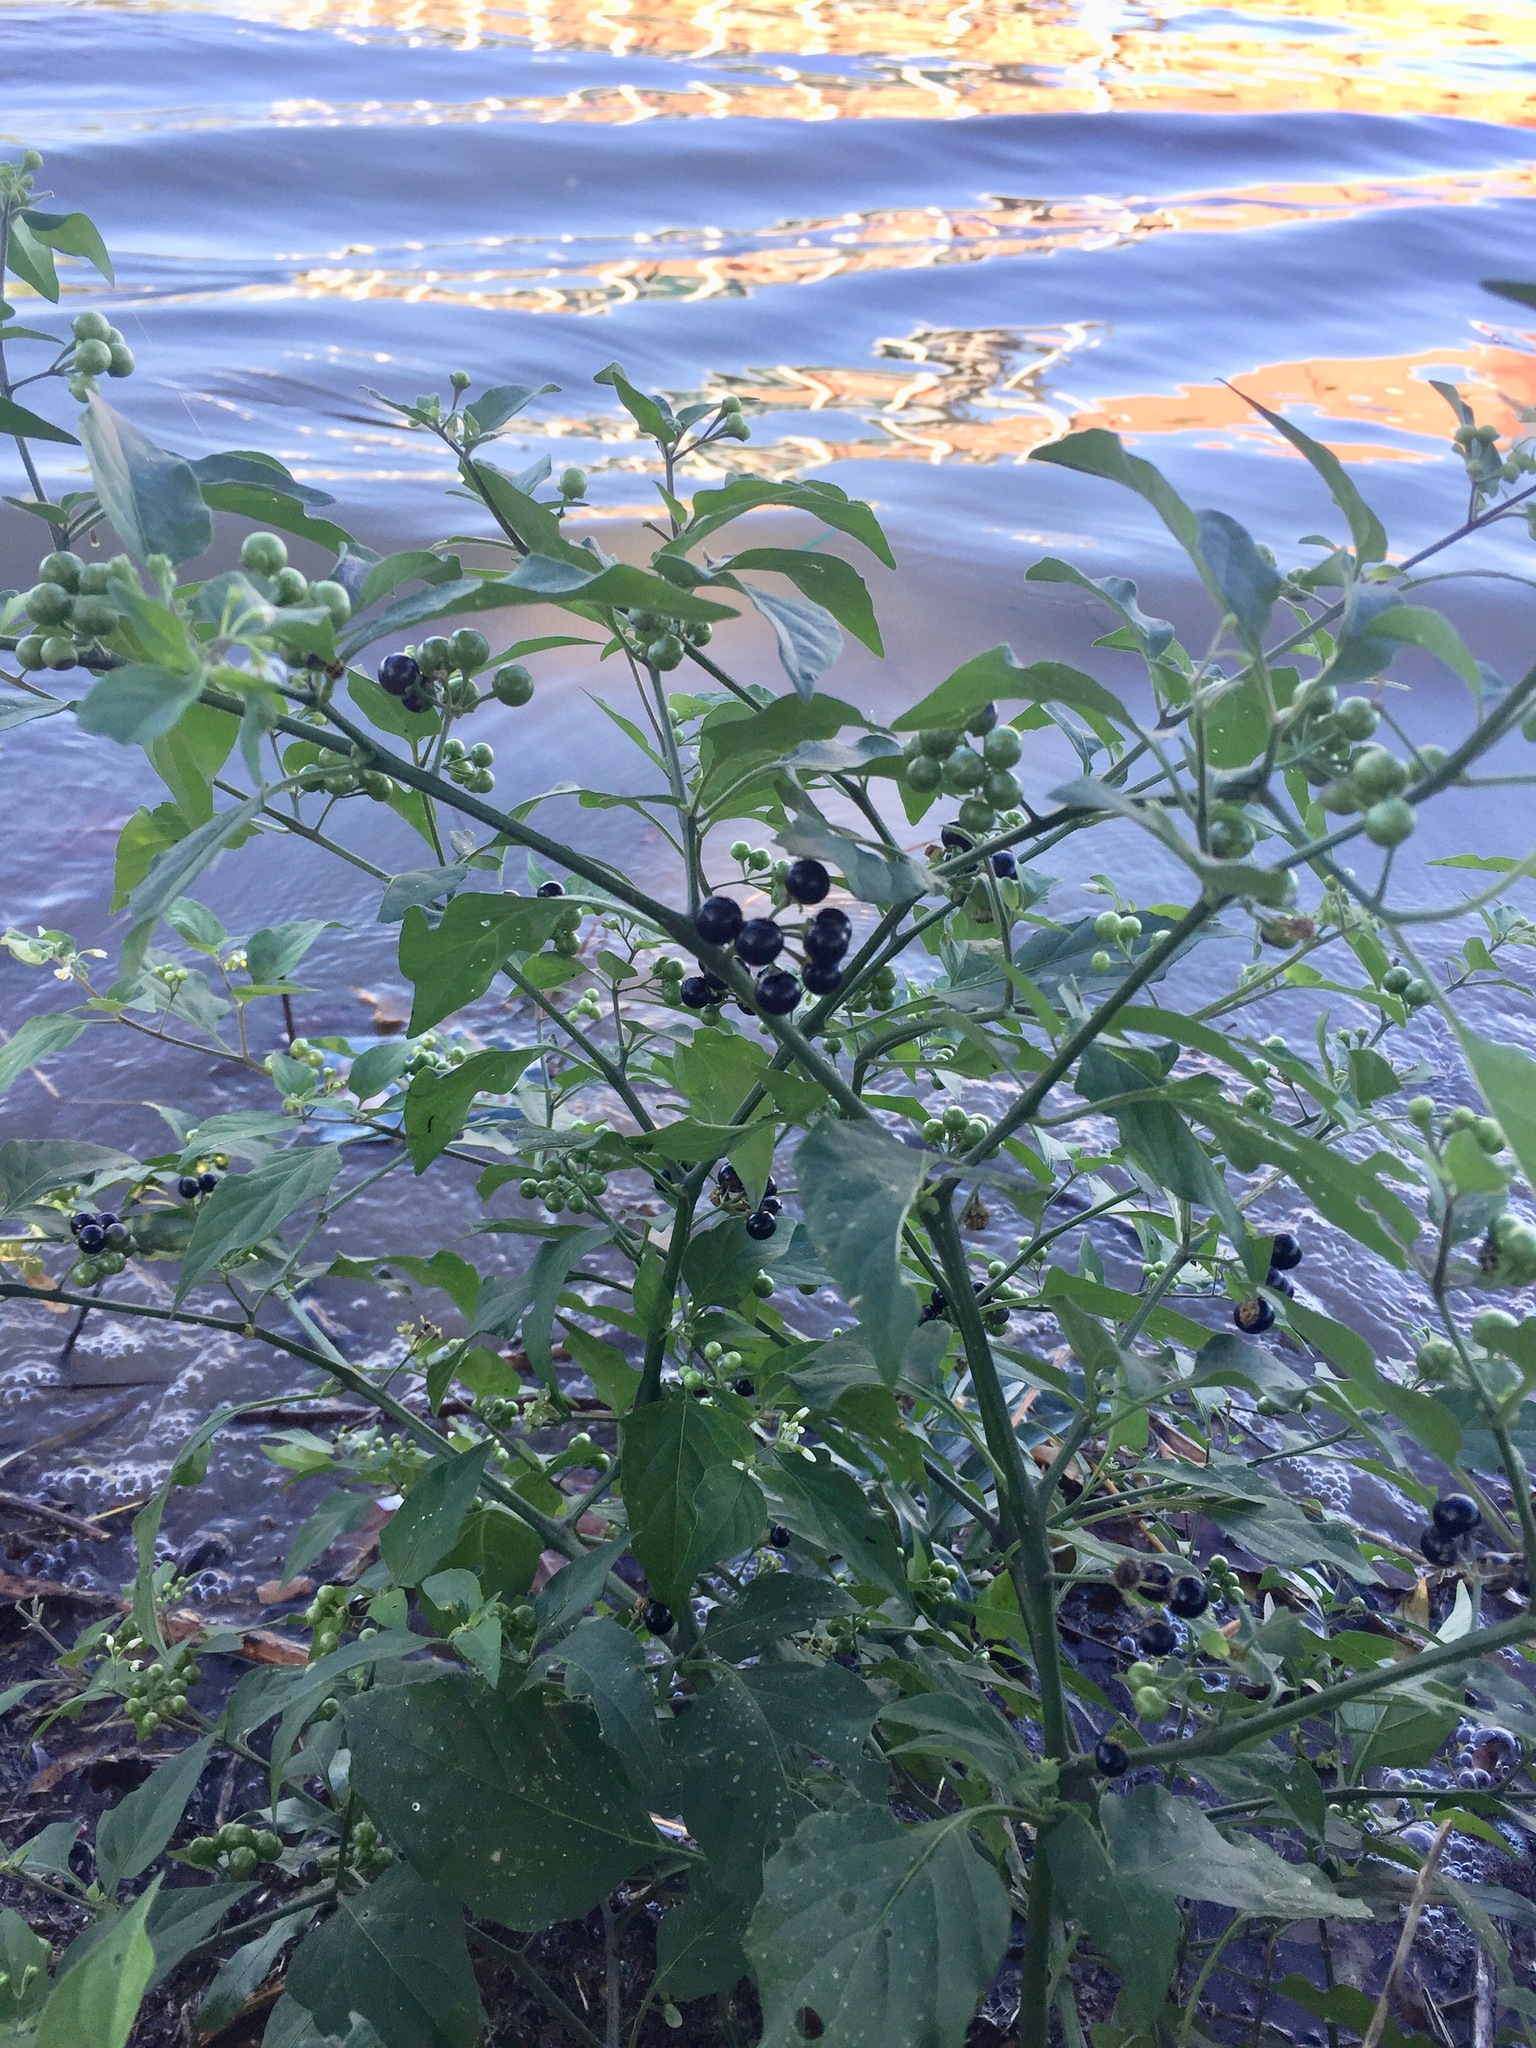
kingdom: Plantae
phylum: Tracheophyta
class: Magnoliopsida
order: Solanales
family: Solanaceae
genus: Solanum
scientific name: Solanum americanum
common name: American black nightshade
